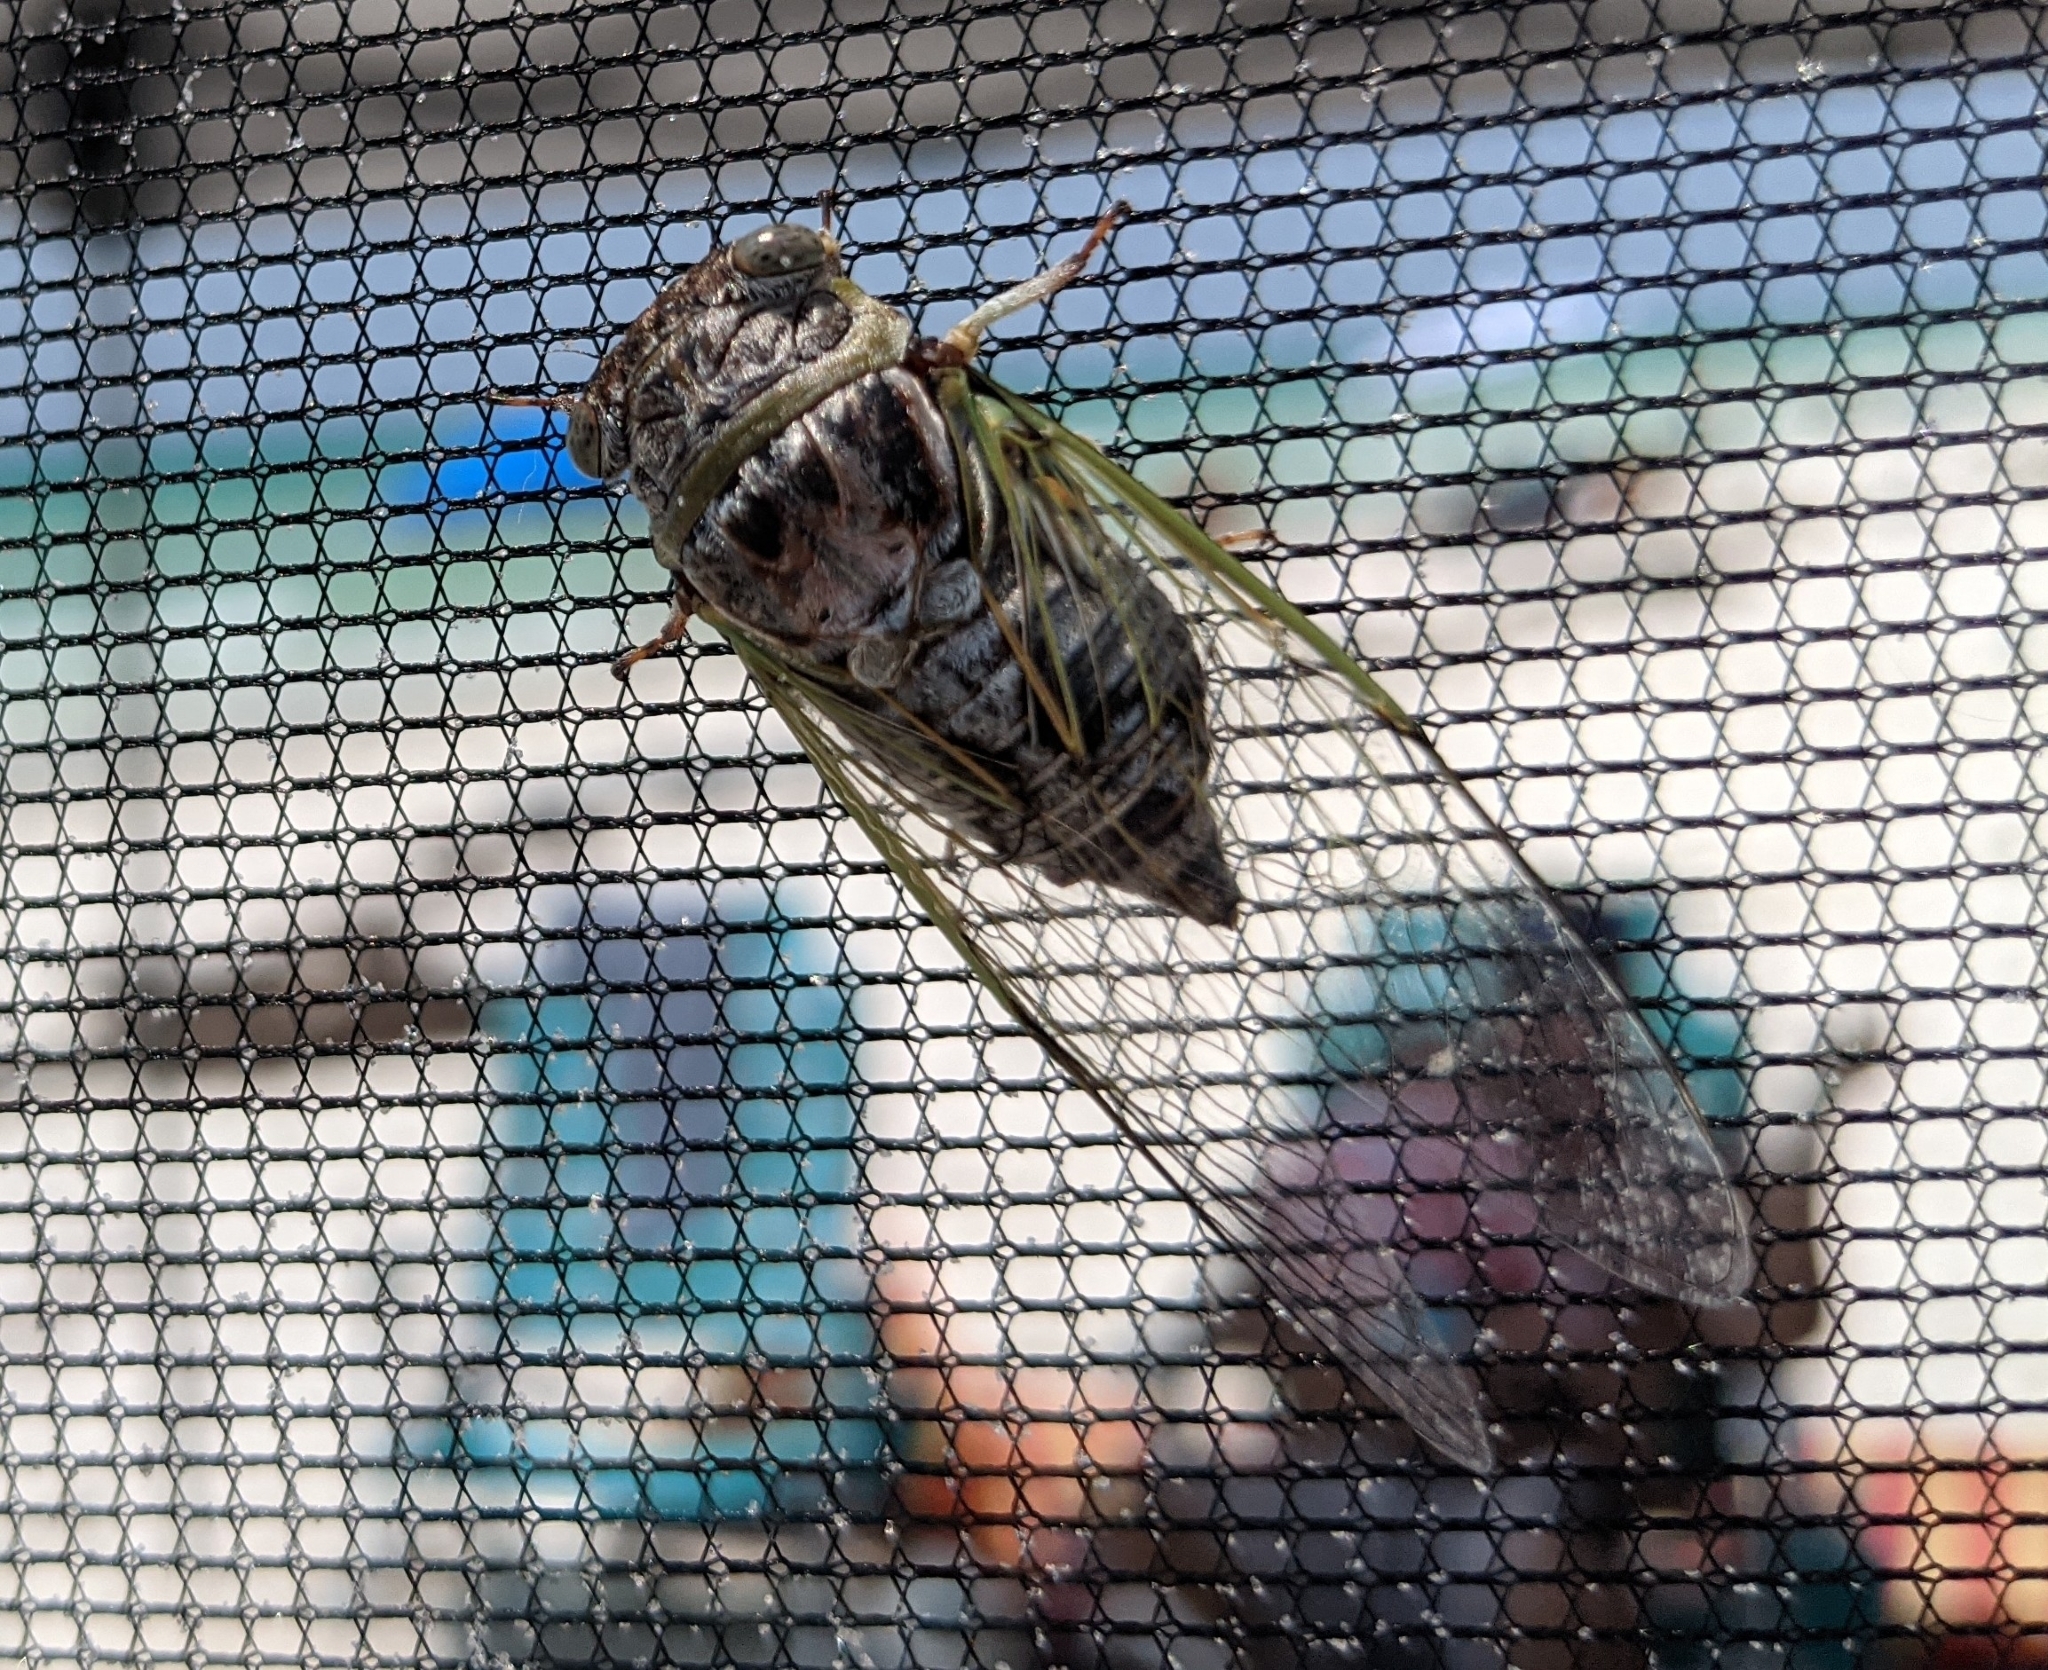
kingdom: Animalia
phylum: Arthropoda
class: Insecta
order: Hemiptera
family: Cicadidae
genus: Diceroprocta
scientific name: Diceroprocta viridifascia
